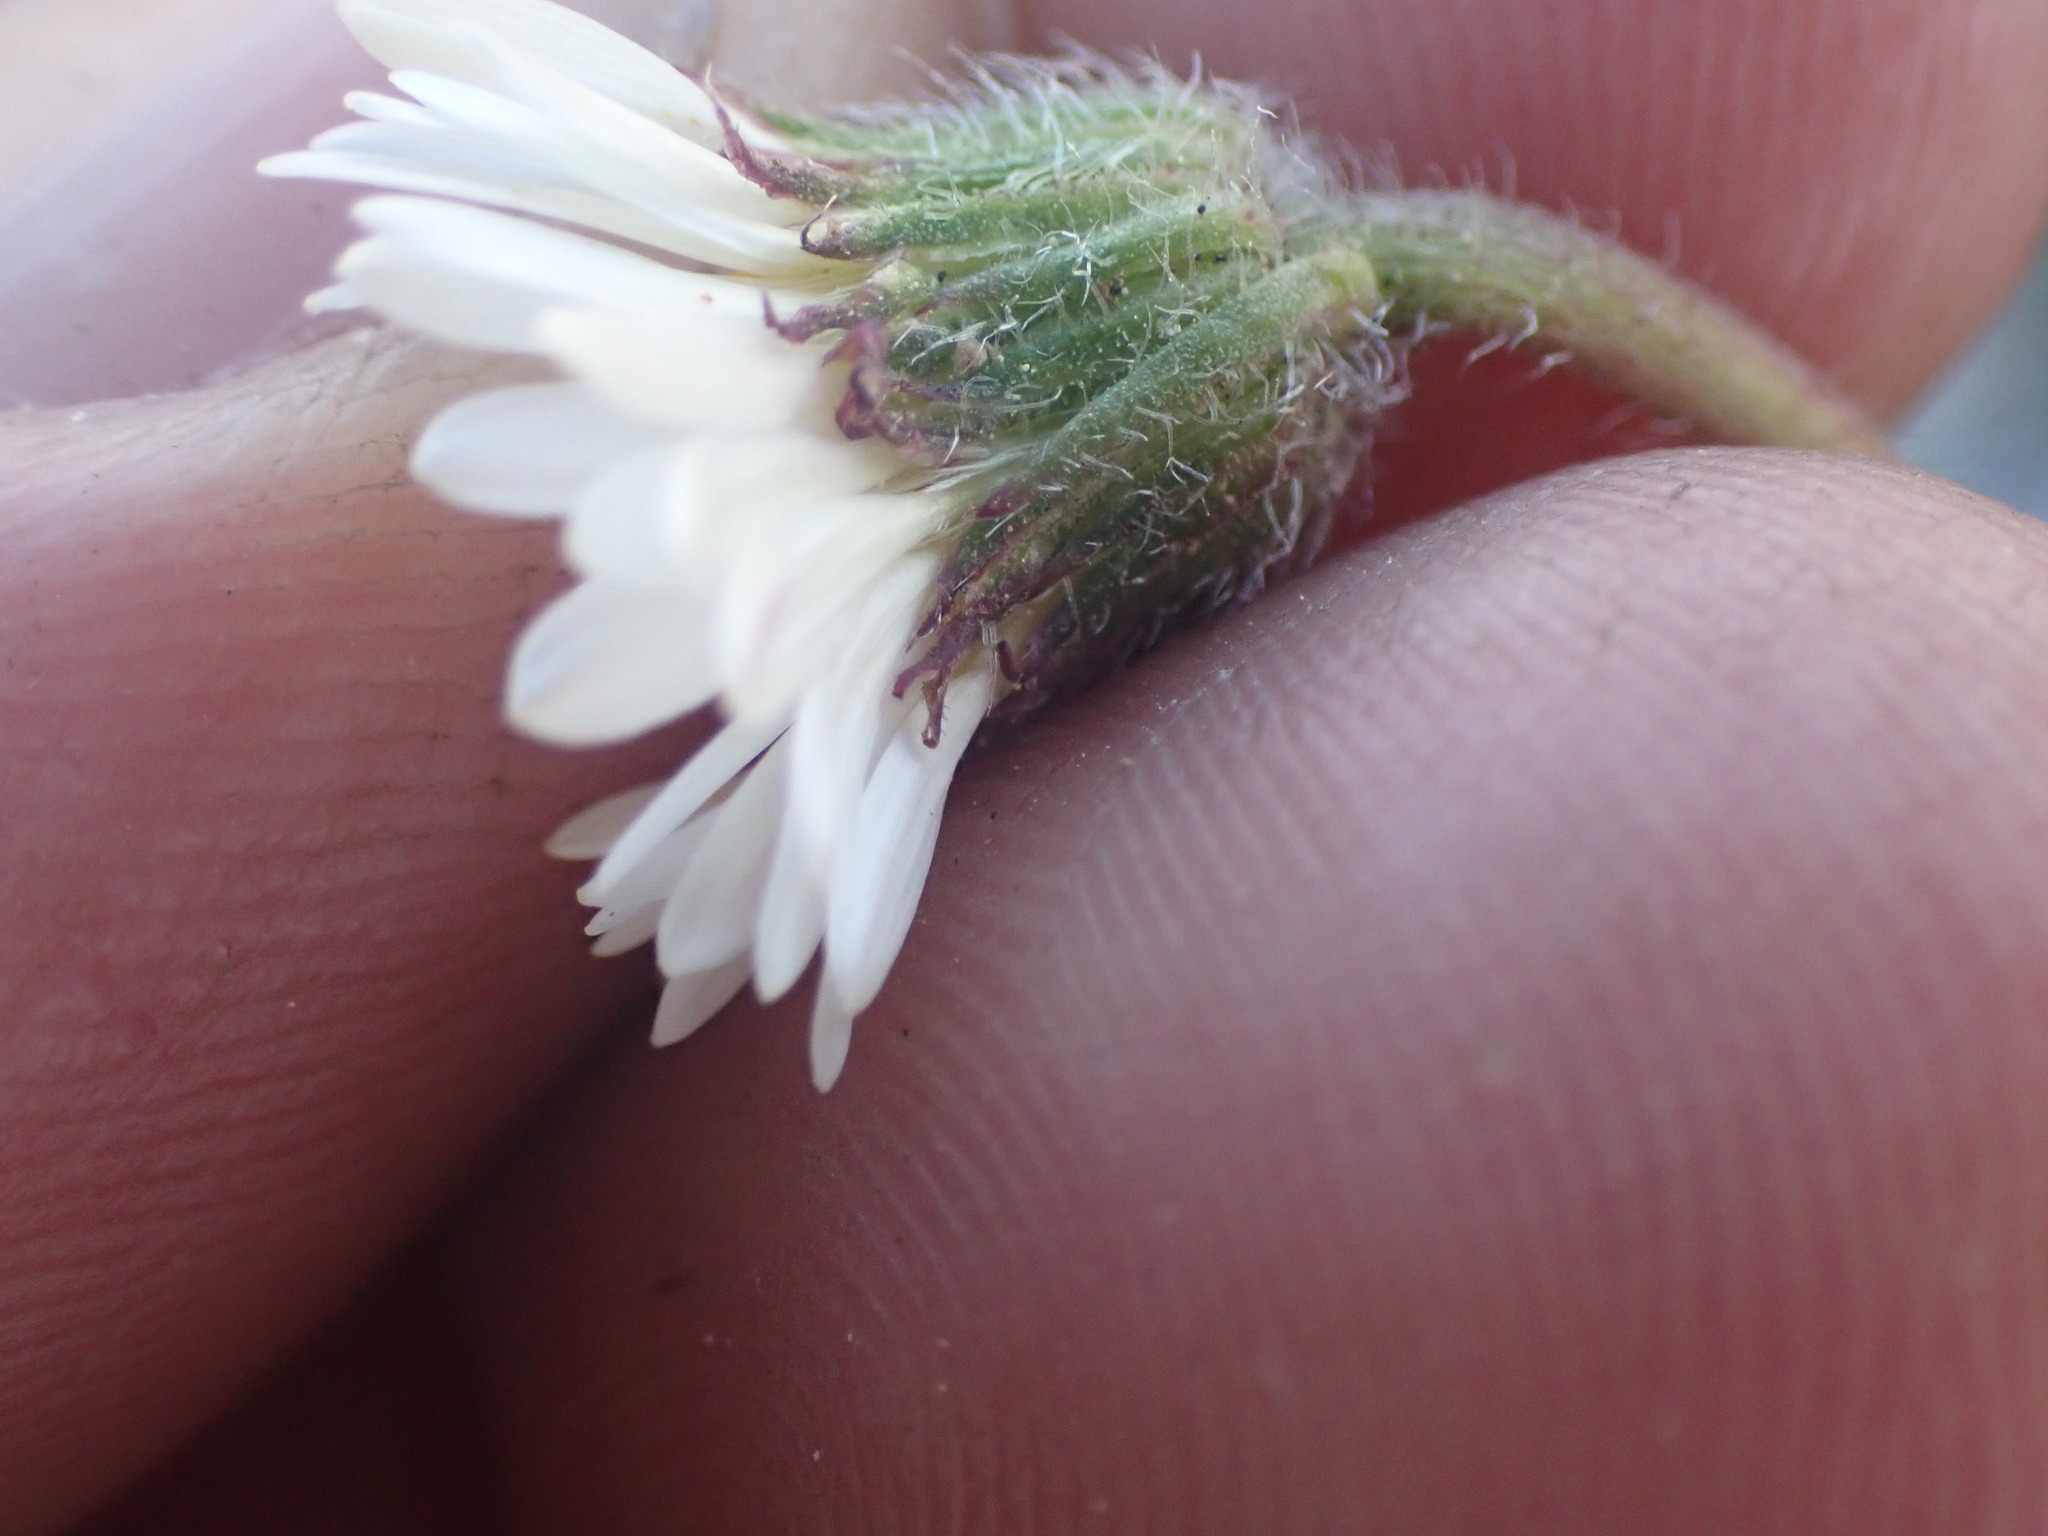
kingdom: Plantae
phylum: Tracheophyta
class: Magnoliopsida
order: Asterales
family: Asteraceae
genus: Erigeron
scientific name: Erigeron compositus
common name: Dwarf mountain fleabane
